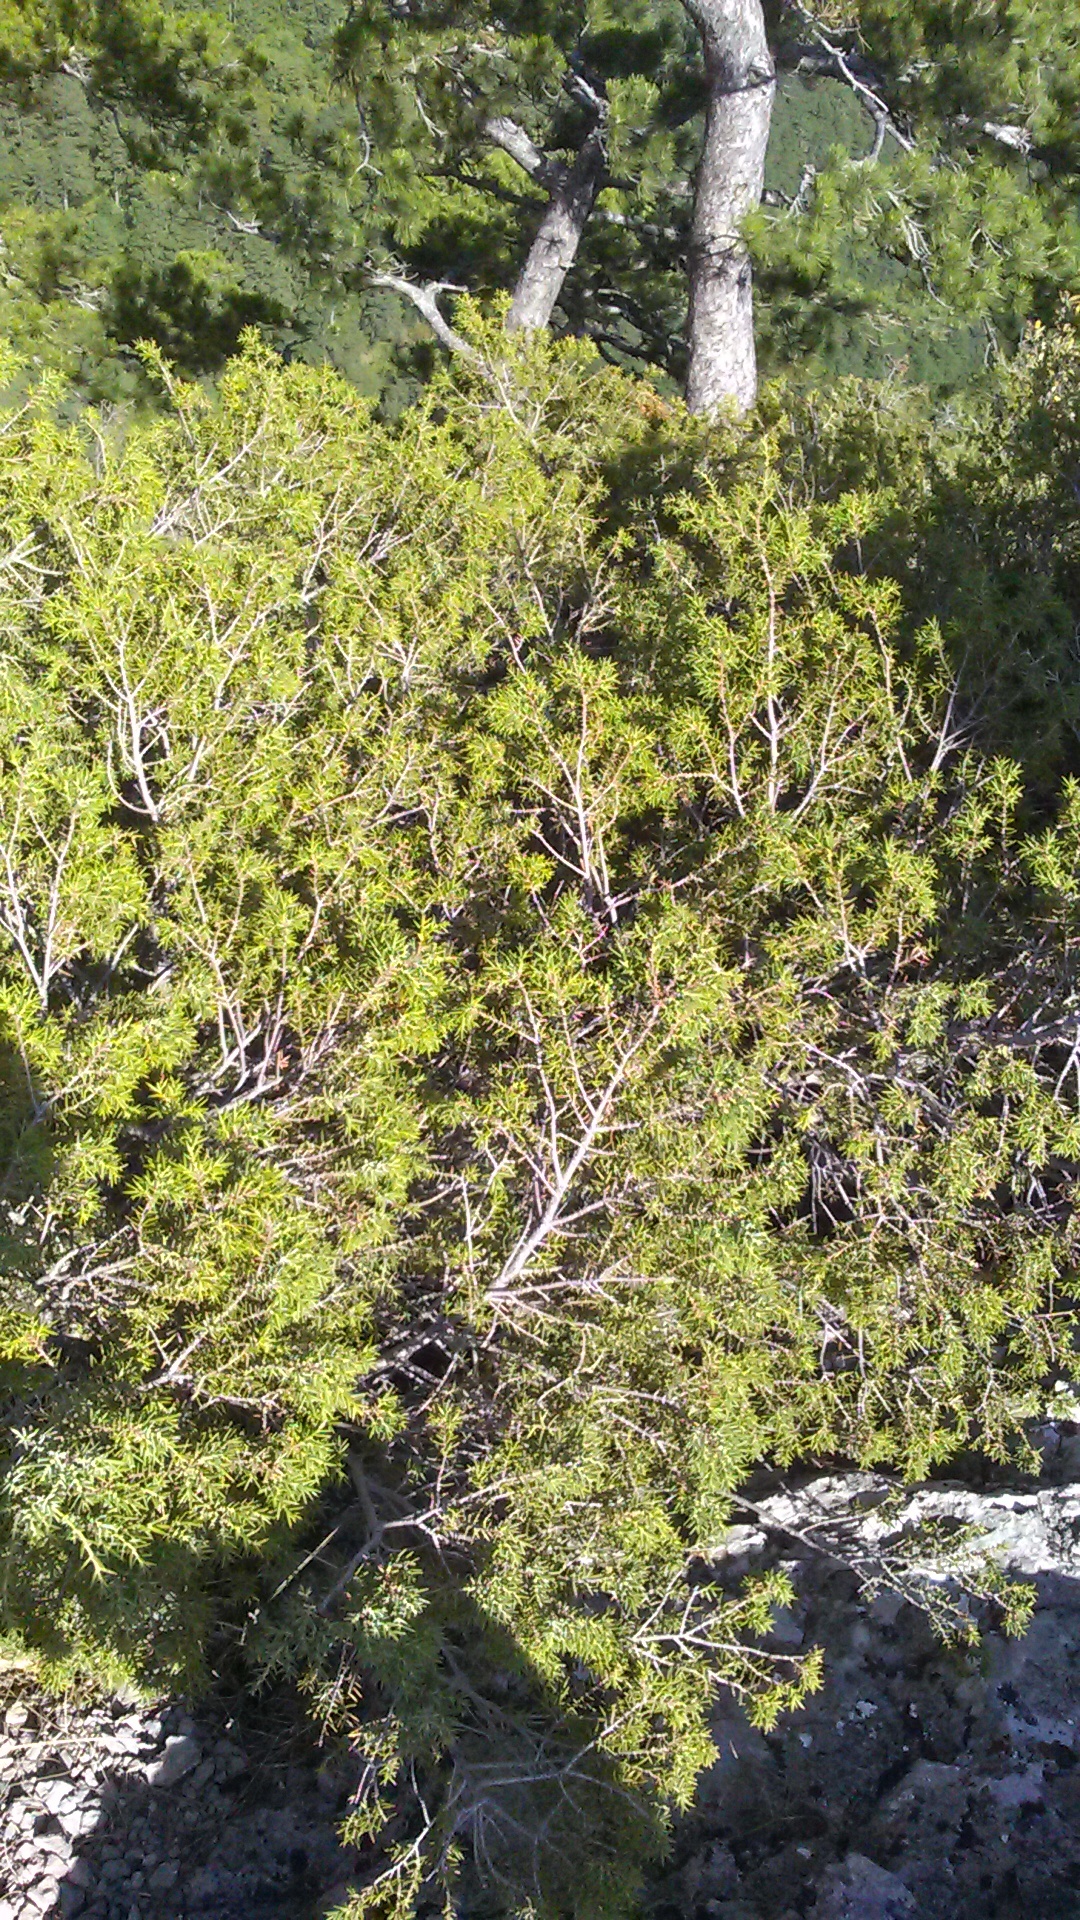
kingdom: Plantae
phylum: Tracheophyta
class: Pinopsida
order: Pinales
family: Cupressaceae
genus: Juniperus
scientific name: Juniperus oxycedrus
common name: Prickly juniper
